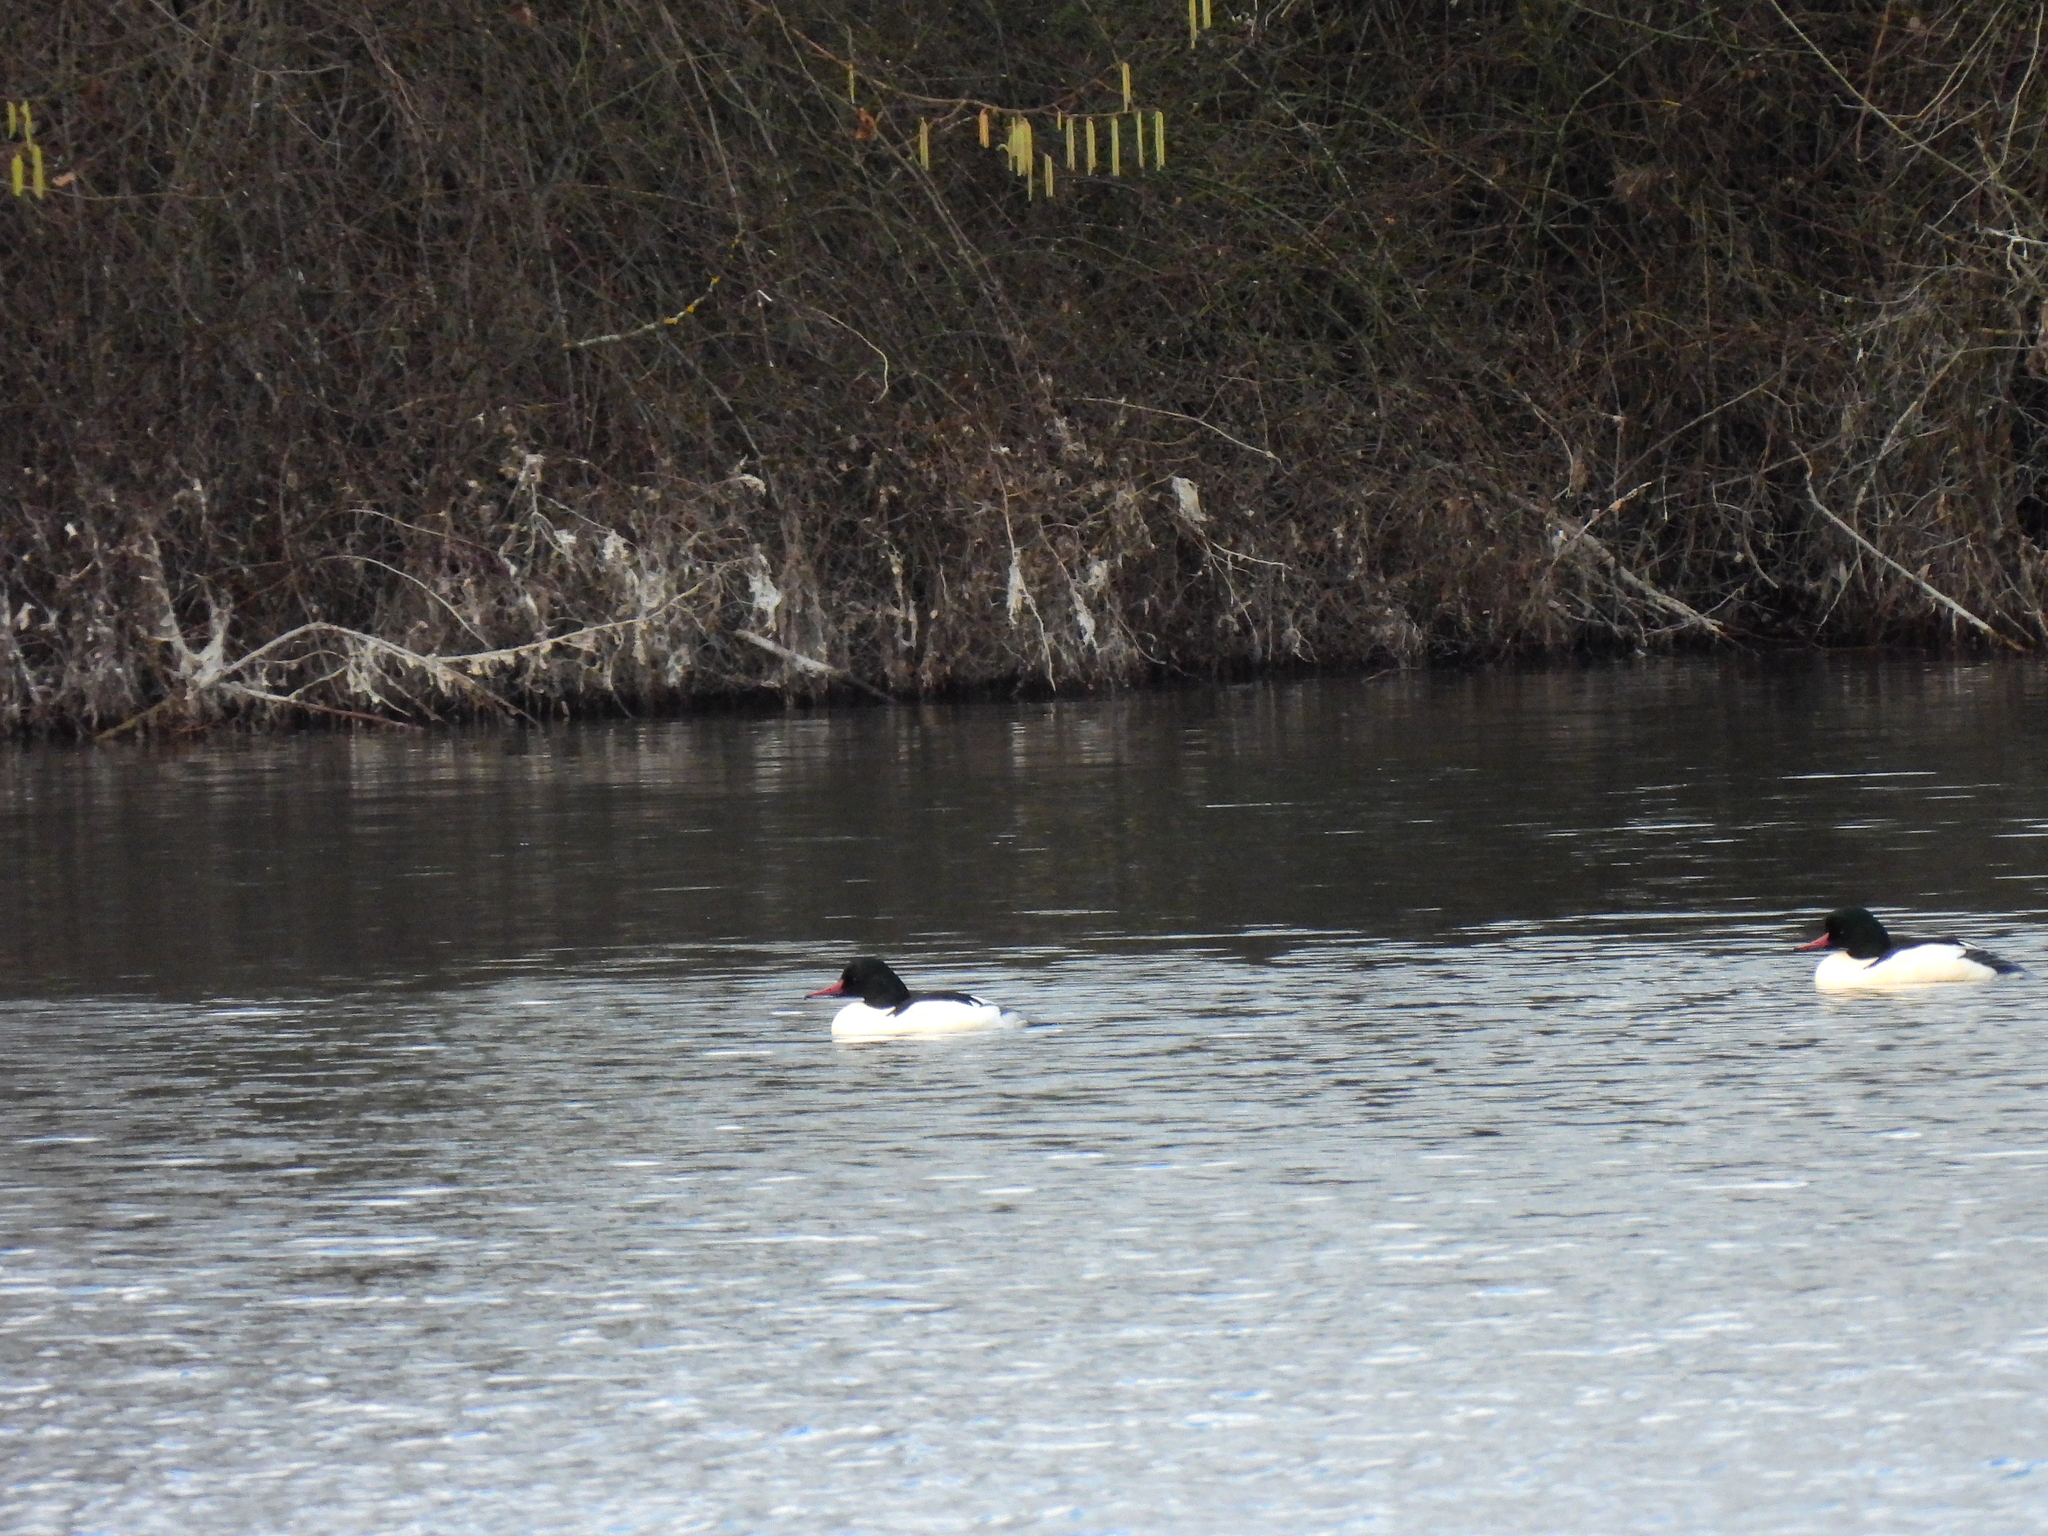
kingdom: Animalia
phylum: Chordata
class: Aves
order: Anseriformes
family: Anatidae
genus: Mergus
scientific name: Mergus merganser
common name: Common merganser
